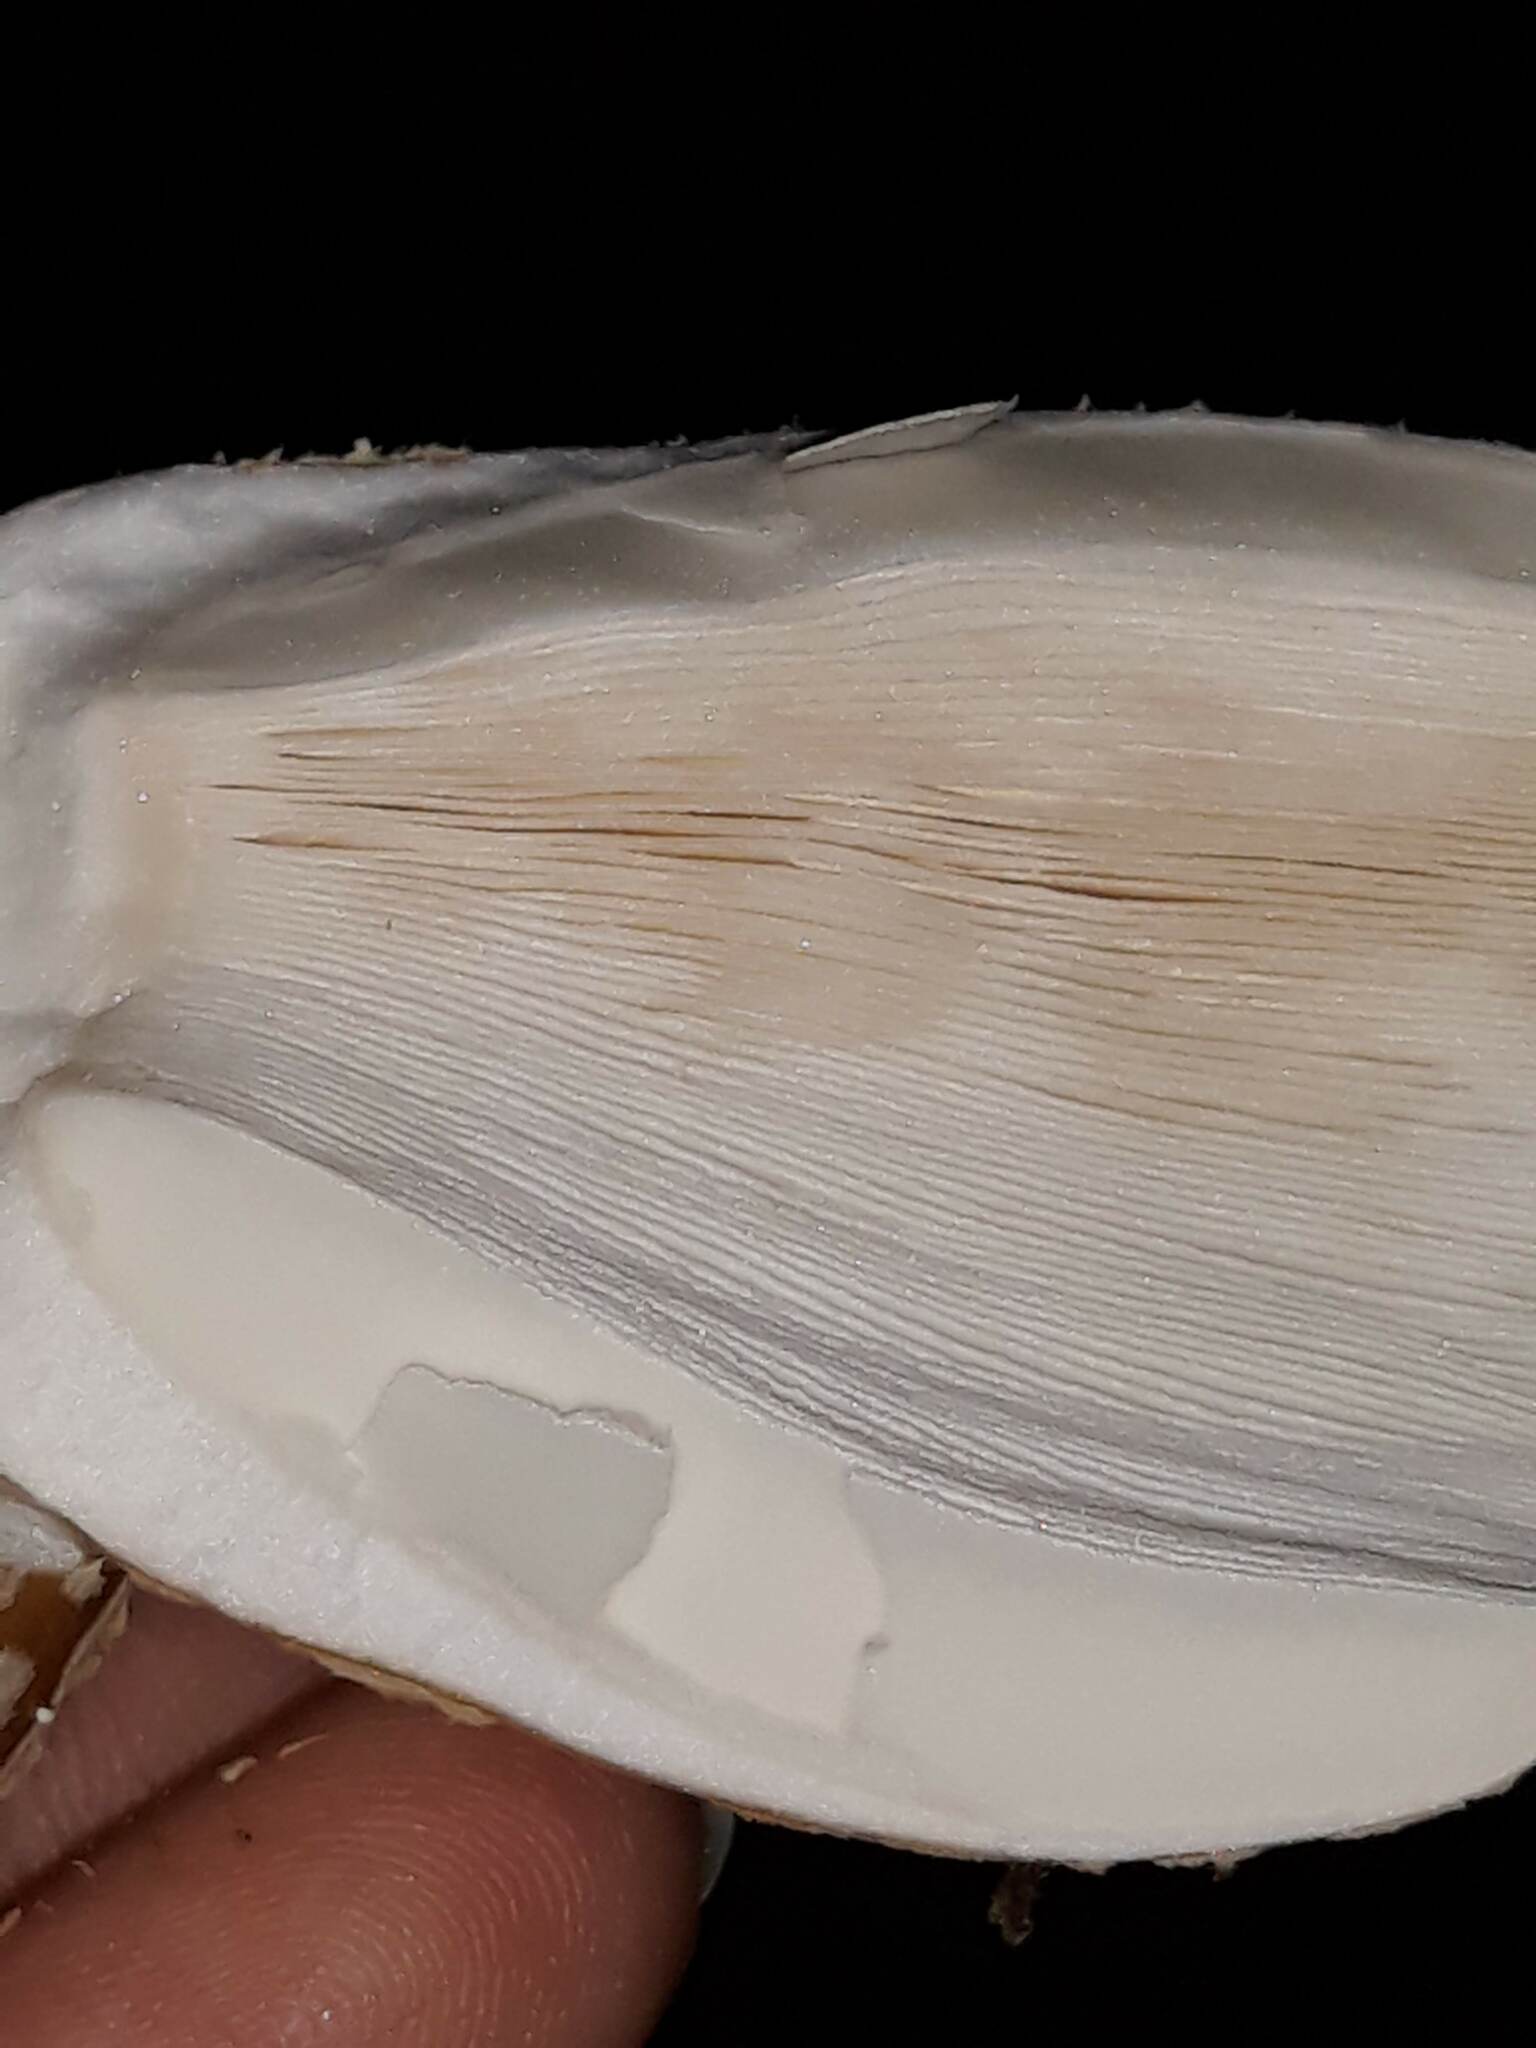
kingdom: Fungi
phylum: Basidiomycota
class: Agaricomycetes
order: Agaricales
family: Amanitaceae
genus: Amanita
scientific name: Amanita
